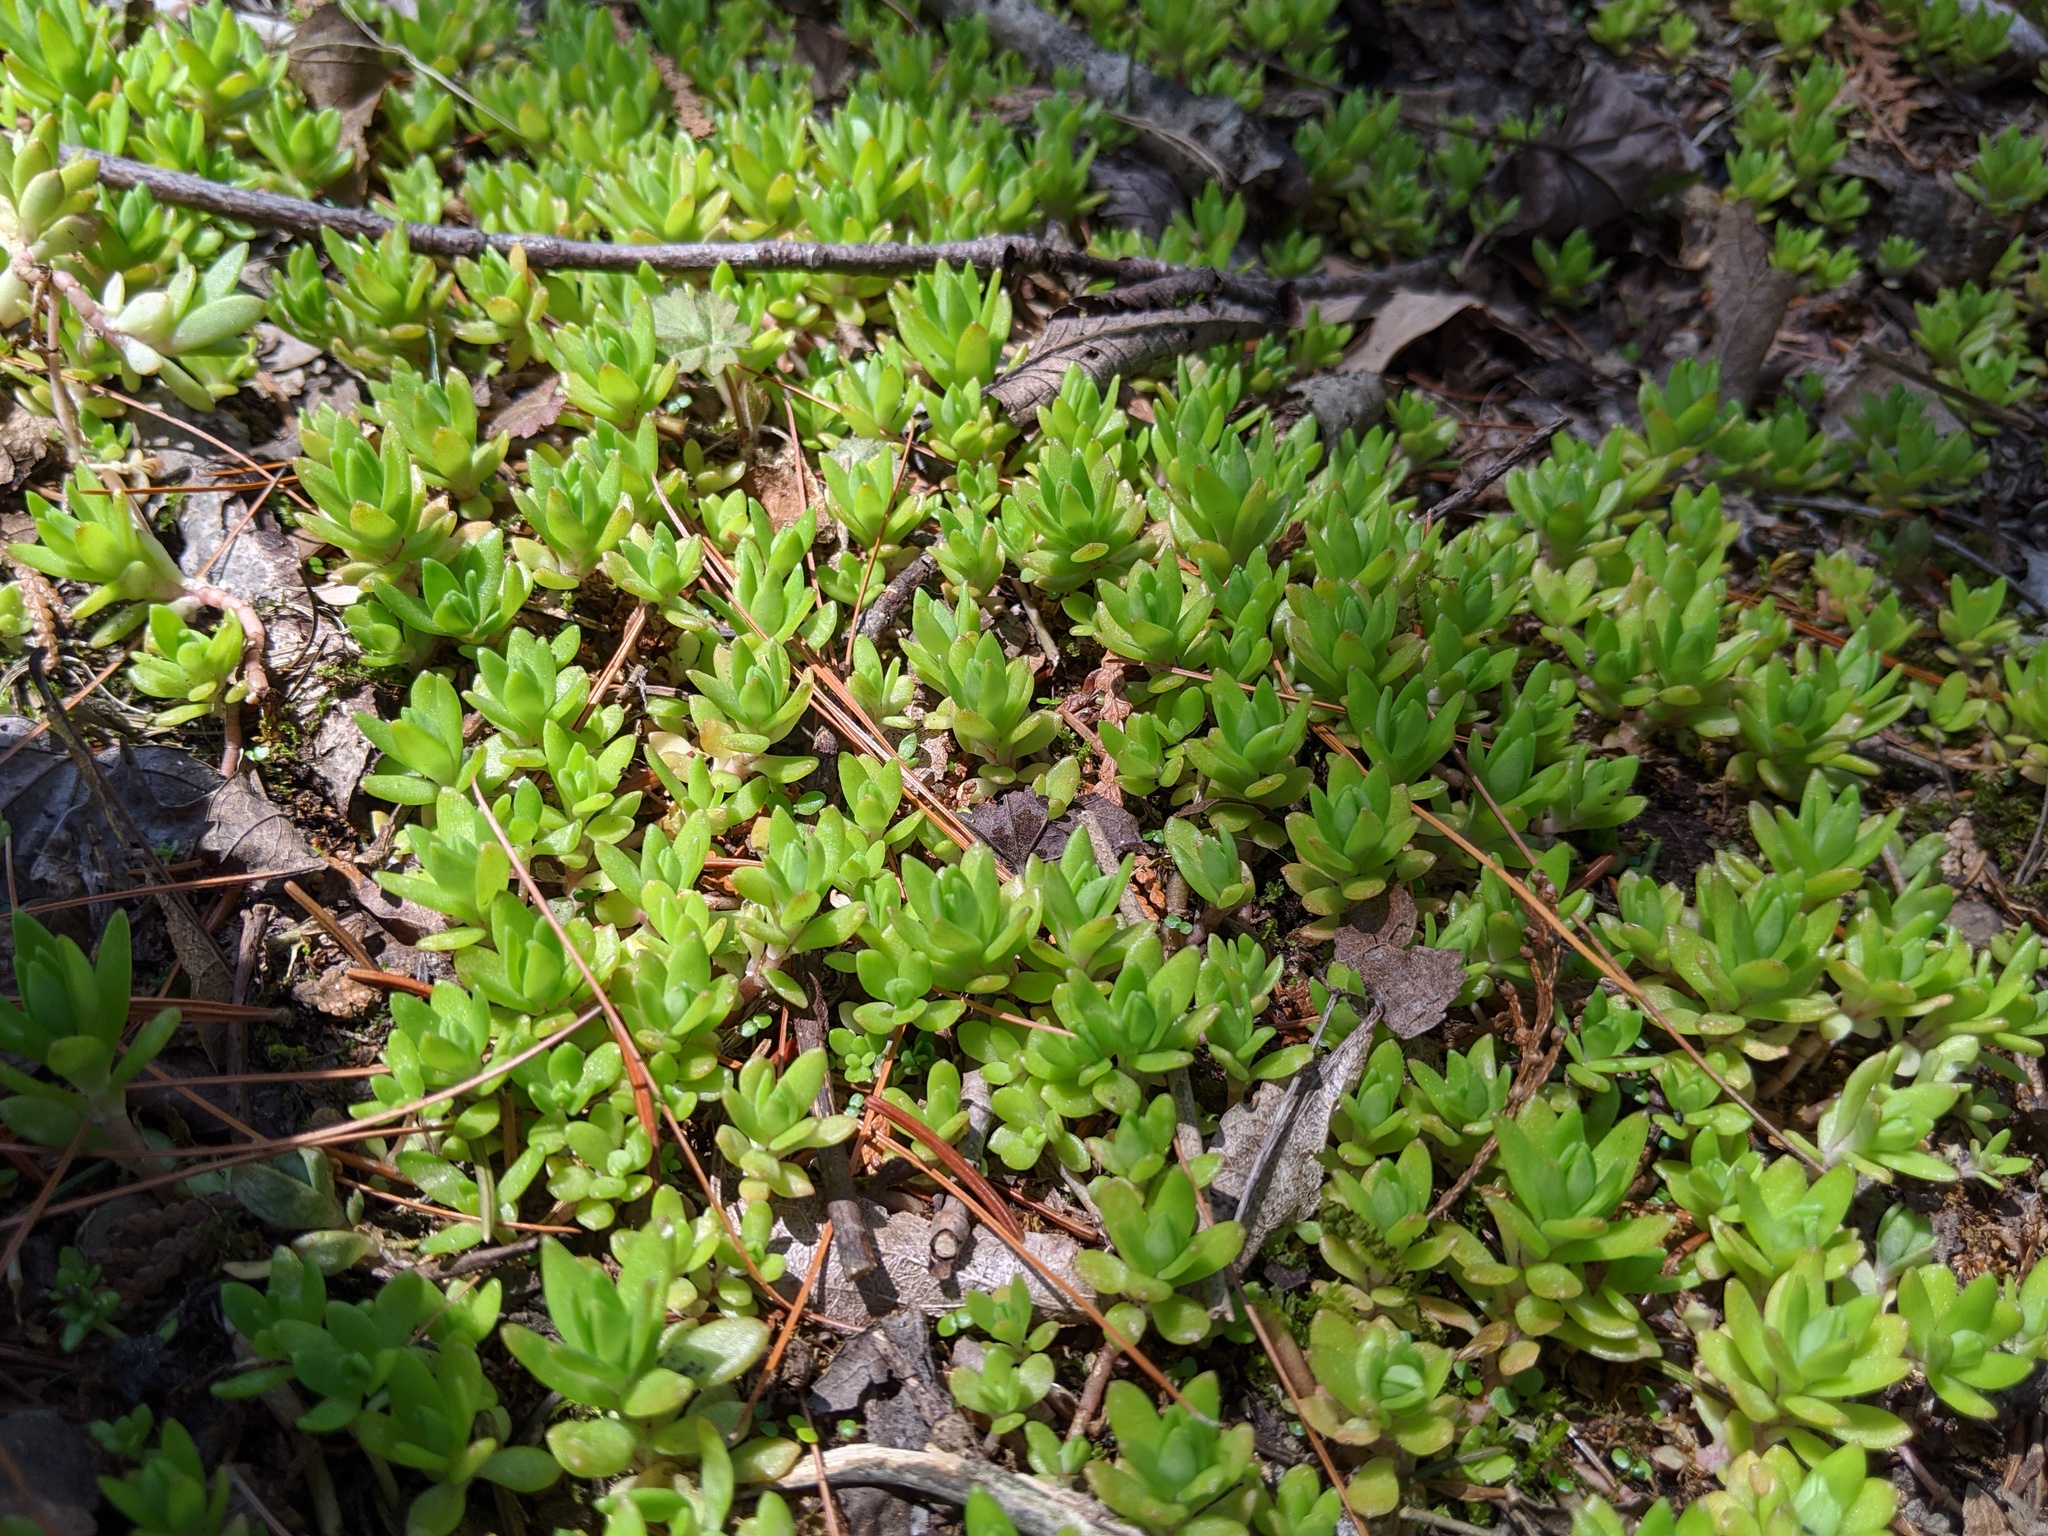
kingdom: Plantae
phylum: Tracheophyta
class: Magnoliopsida
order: Saxifragales
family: Crassulaceae
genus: Sedum
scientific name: Sedum sarmentosum
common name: Stringy stonecrop
